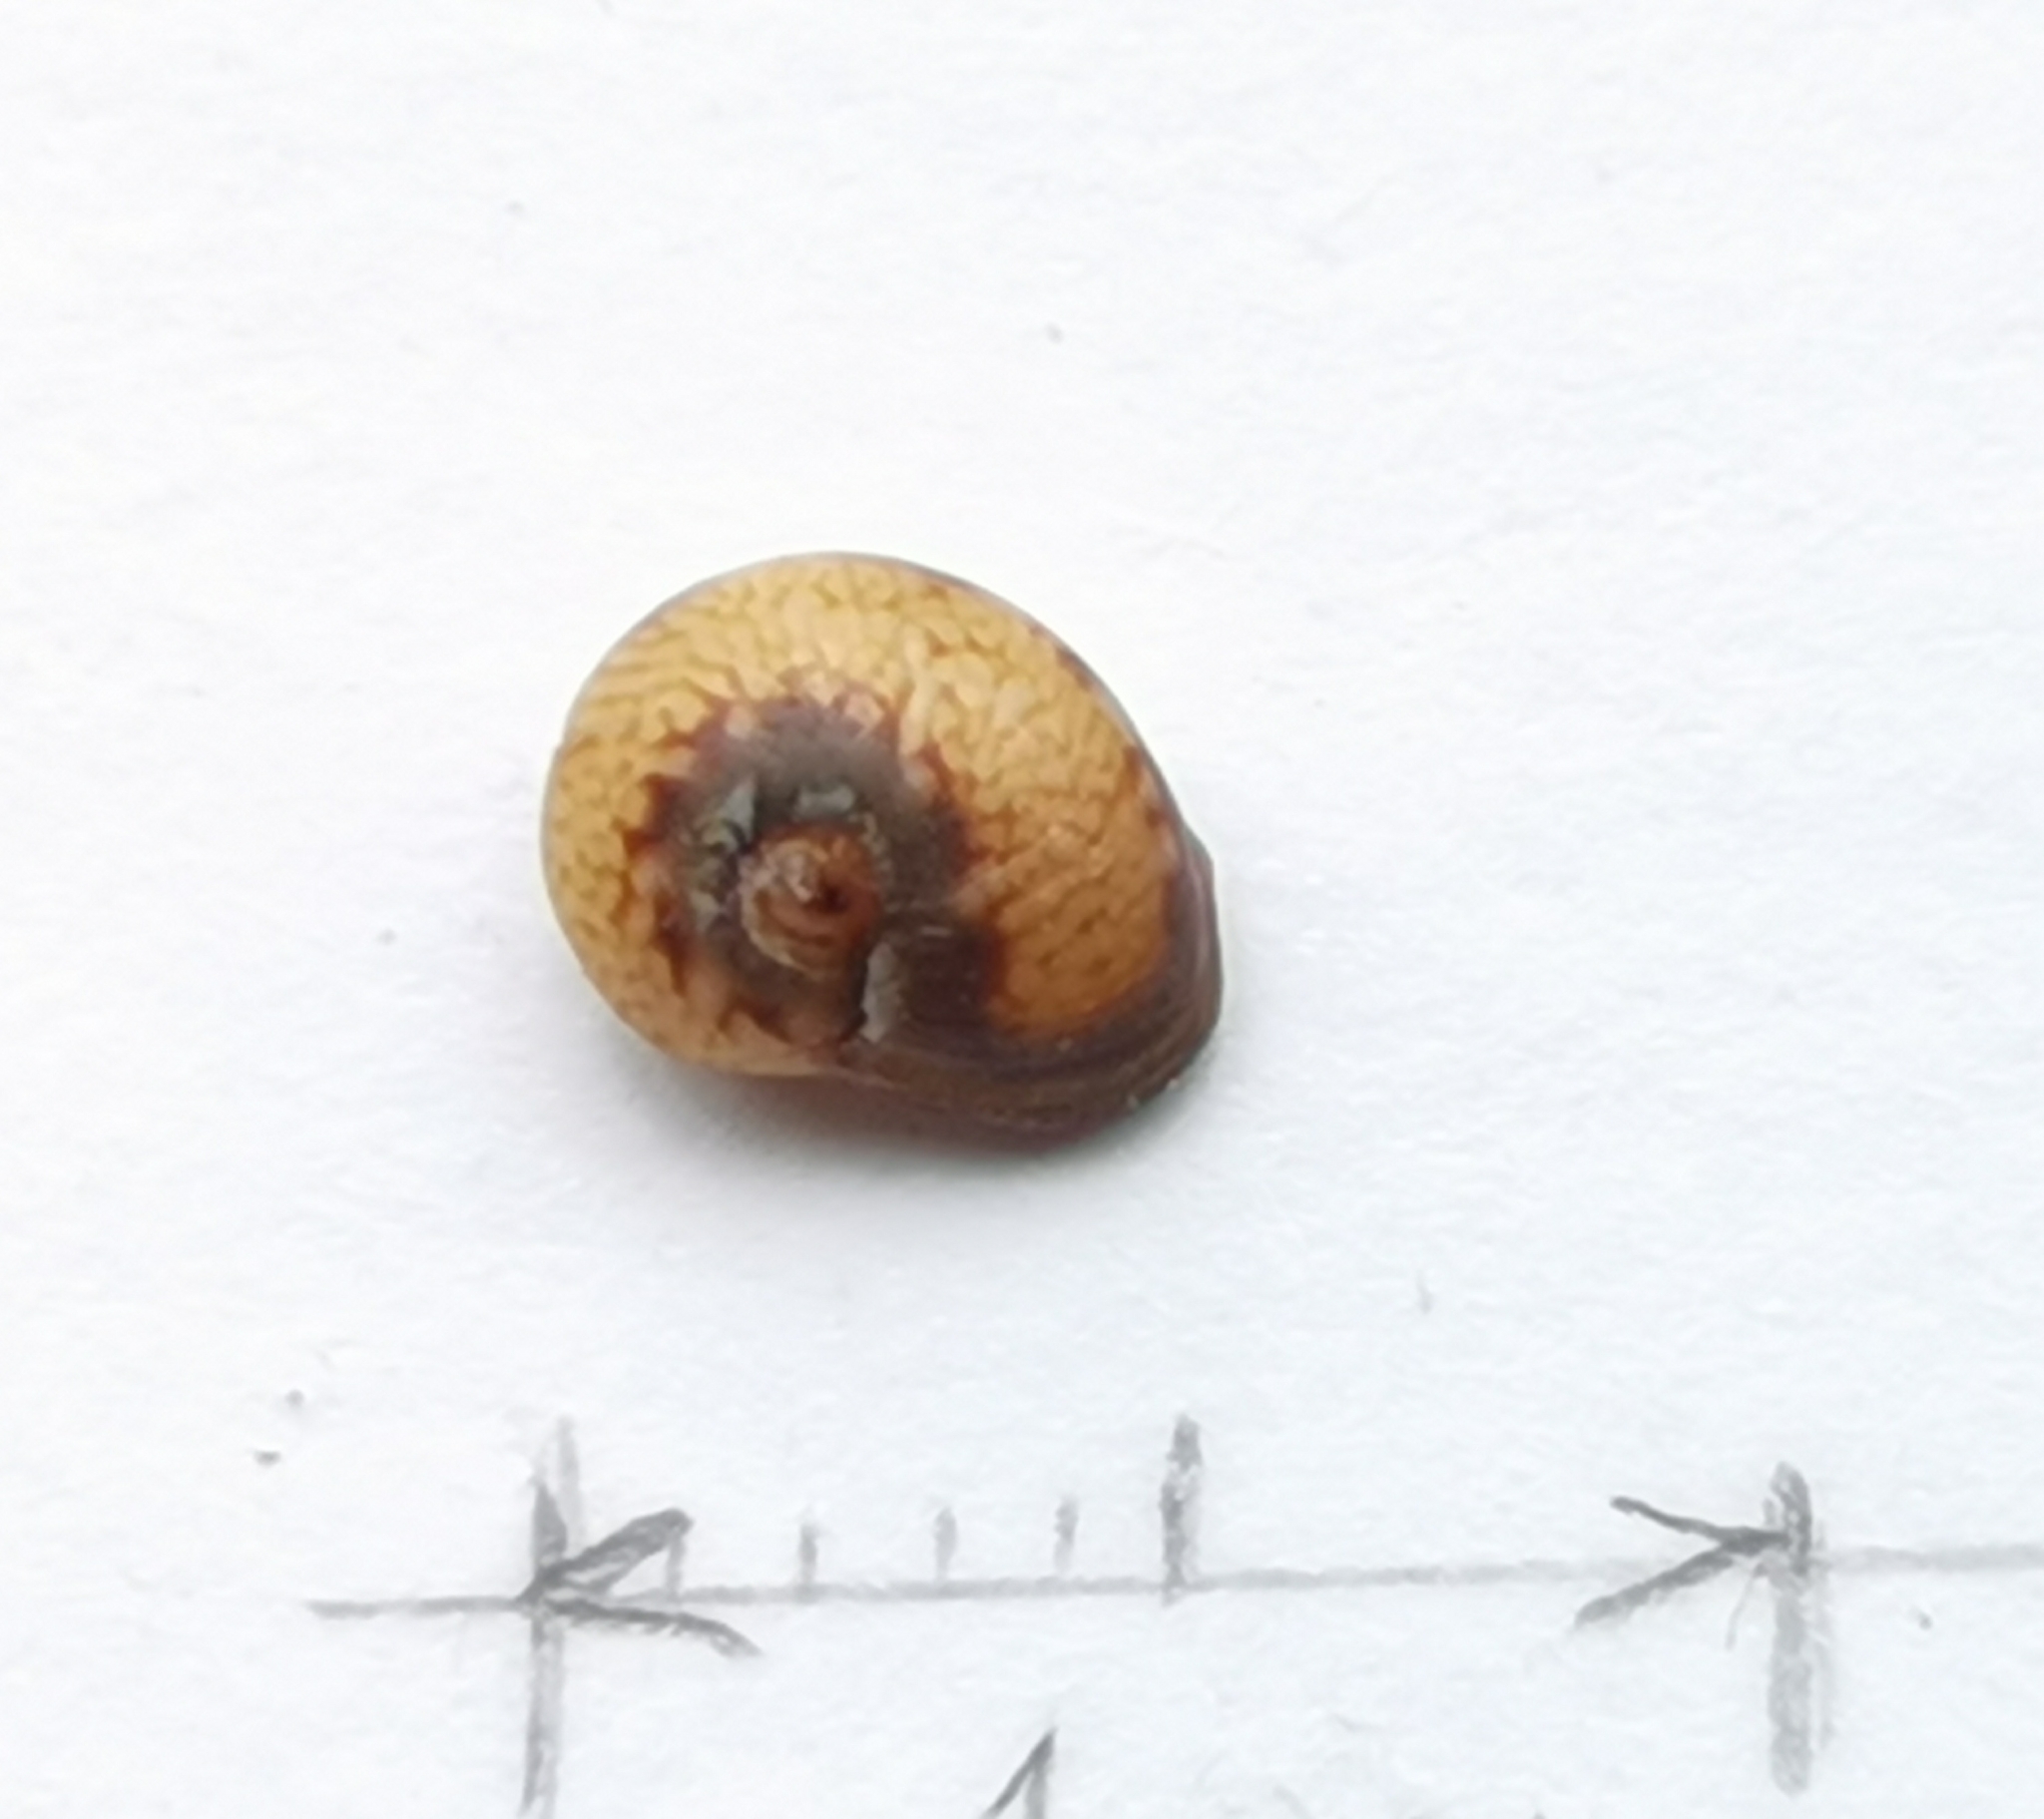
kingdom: Animalia
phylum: Mollusca
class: Gastropoda
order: Neogastropoda
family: Nassariidae
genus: Tritia
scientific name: Tritia neritea
